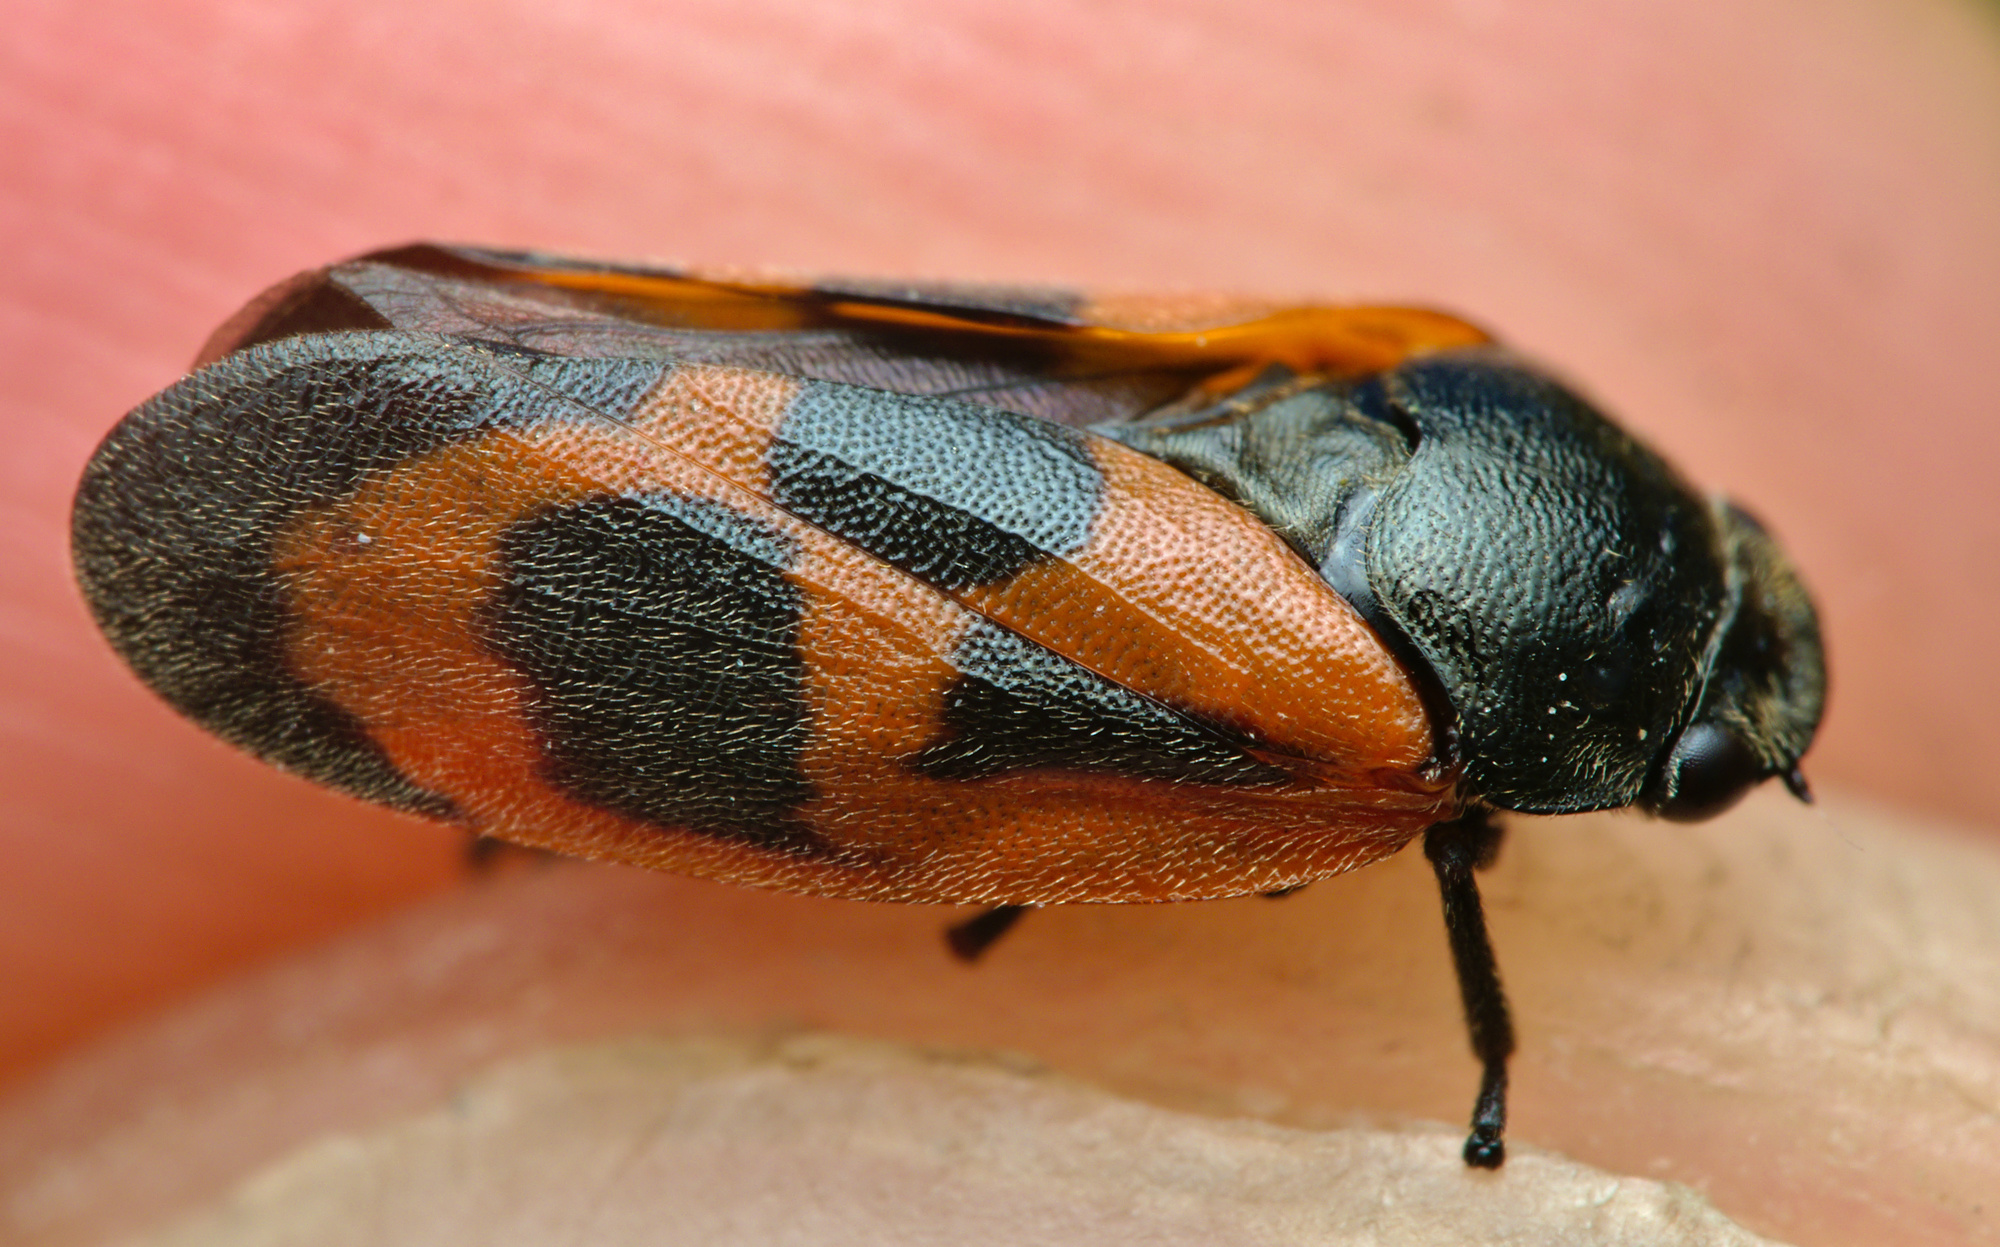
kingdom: Animalia
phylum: Arthropoda
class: Insecta
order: Hemiptera
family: Cercopidae
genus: Haematoloma
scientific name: Haematoloma dorsata
